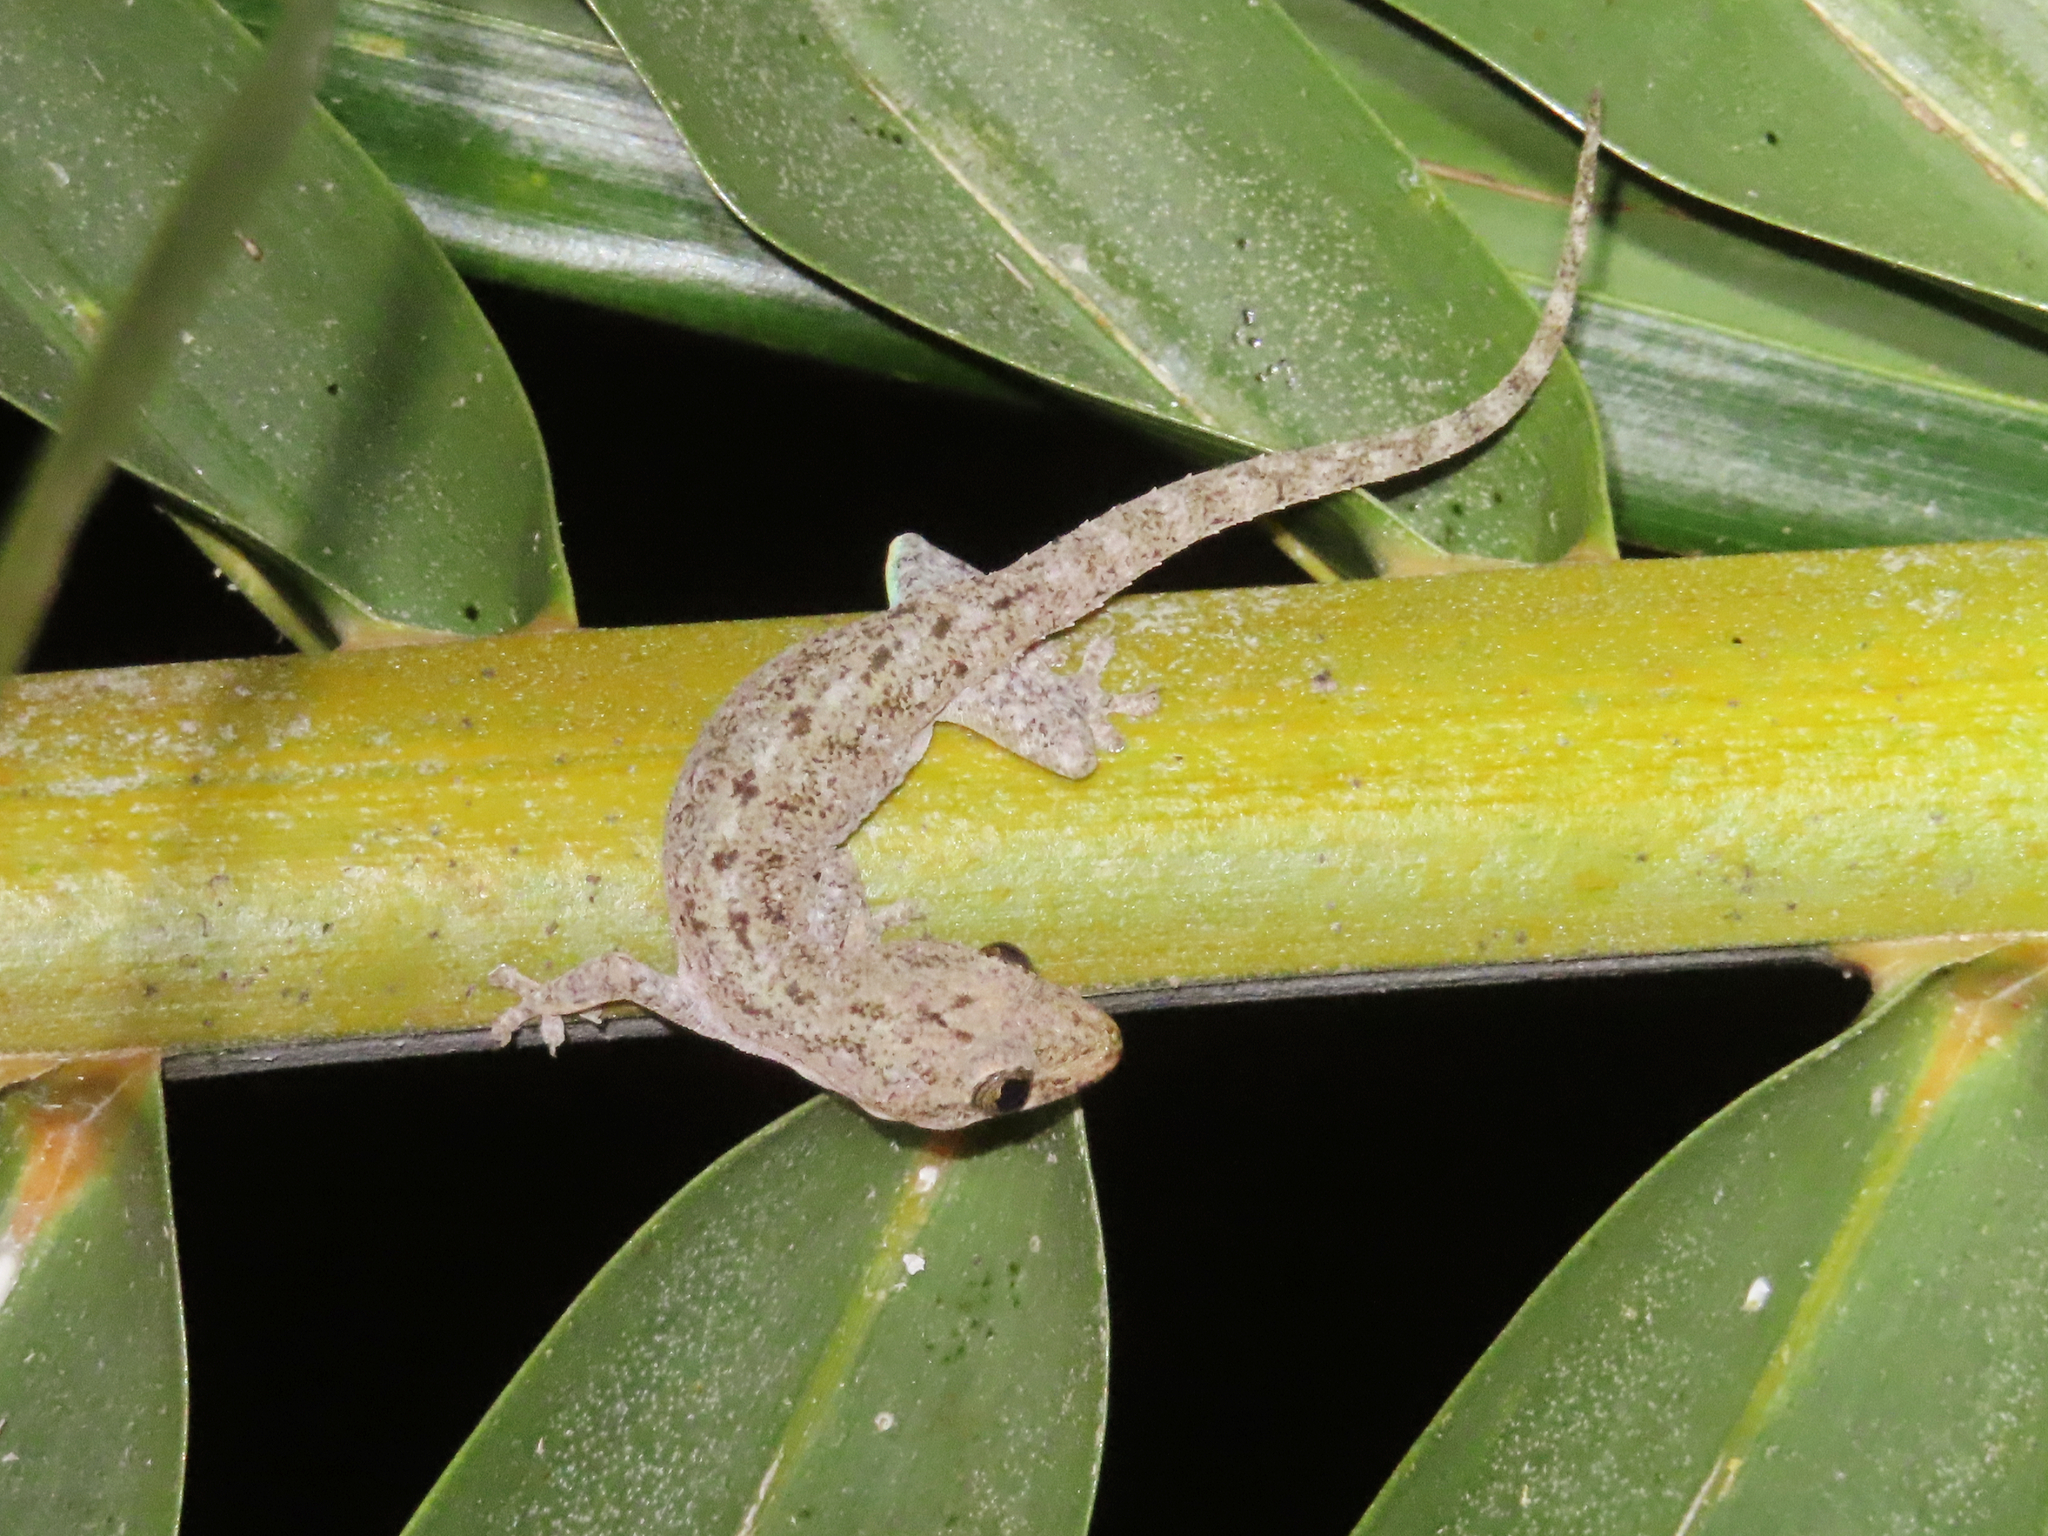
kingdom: Animalia
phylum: Chordata
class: Squamata
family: Gekkonidae
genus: Hemidactylus
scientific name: Hemidactylus frenatus
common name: Common house gecko
